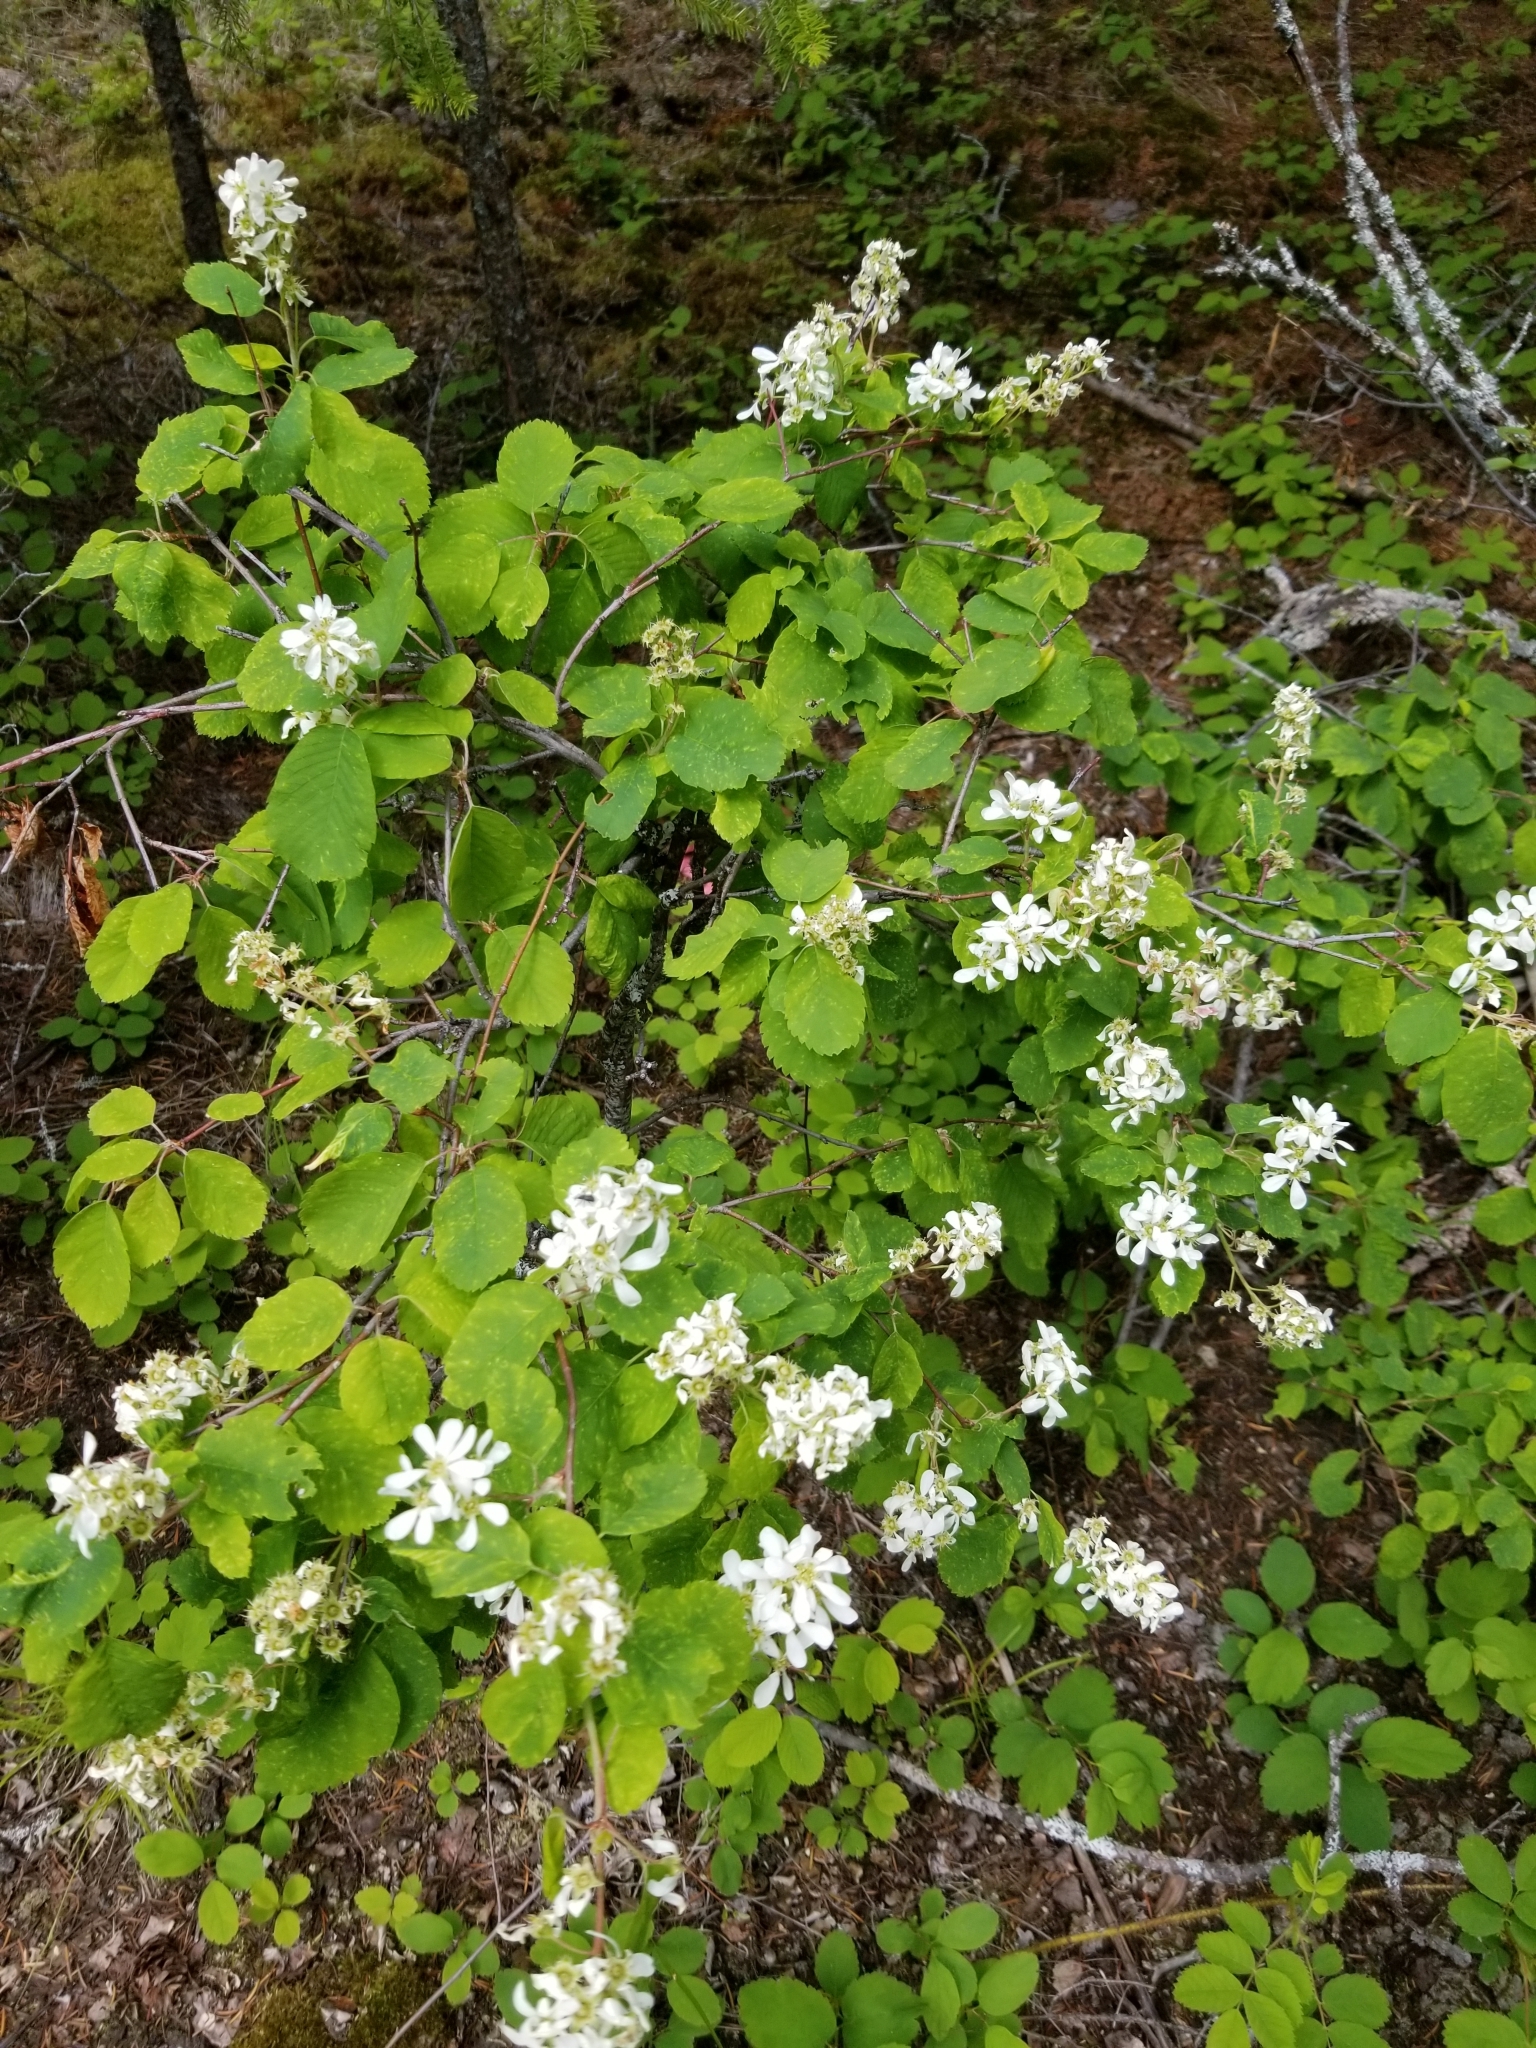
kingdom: Plantae
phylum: Tracheophyta
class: Magnoliopsida
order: Rosales
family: Rosaceae
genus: Amelanchier
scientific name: Amelanchier alnifolia
